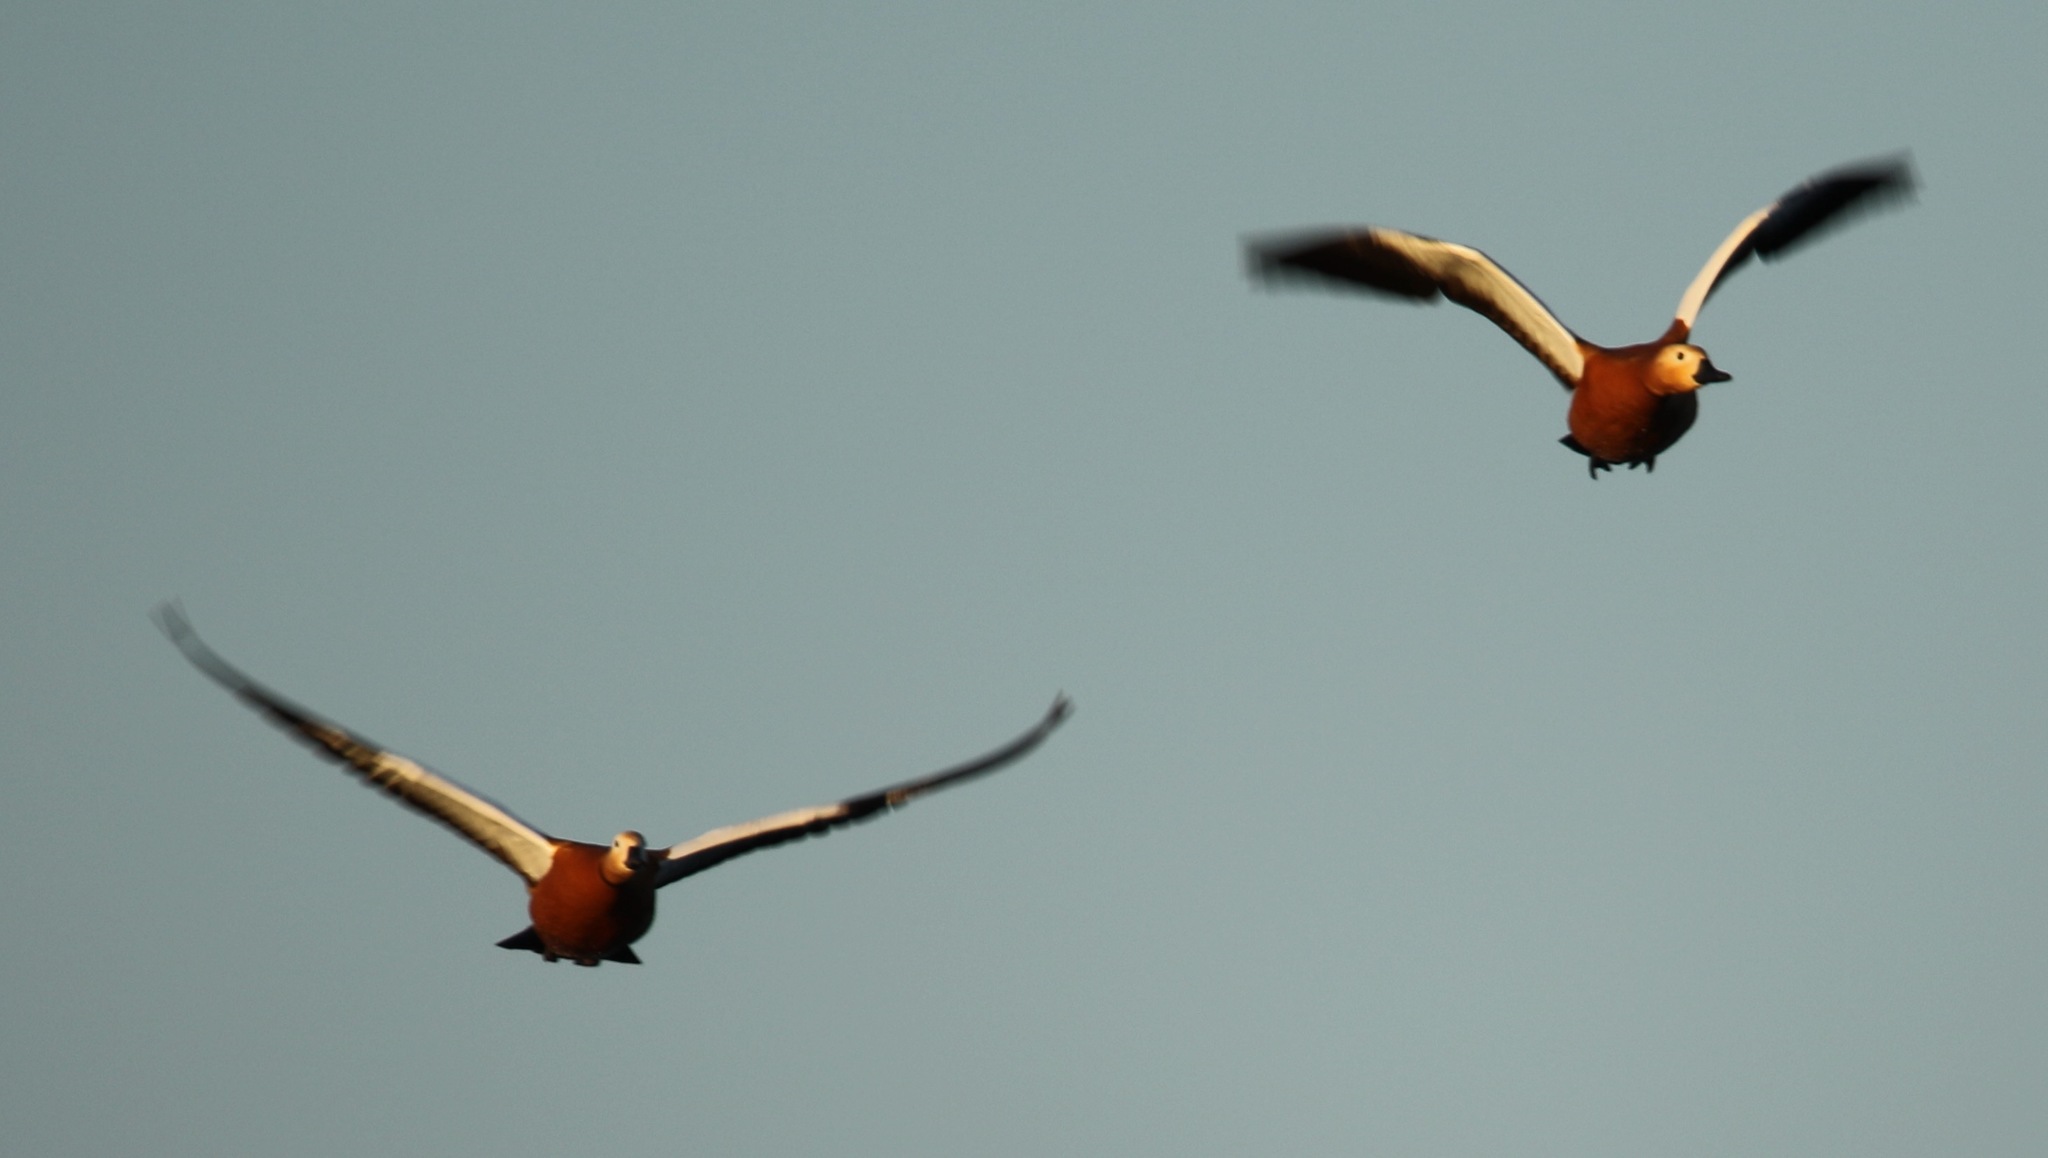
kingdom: Animalia
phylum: Chordata
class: Aves
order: Anseriformes
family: Anatidae
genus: Tadorna
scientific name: Tadorna ferruginea
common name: Ruddy shelduck
